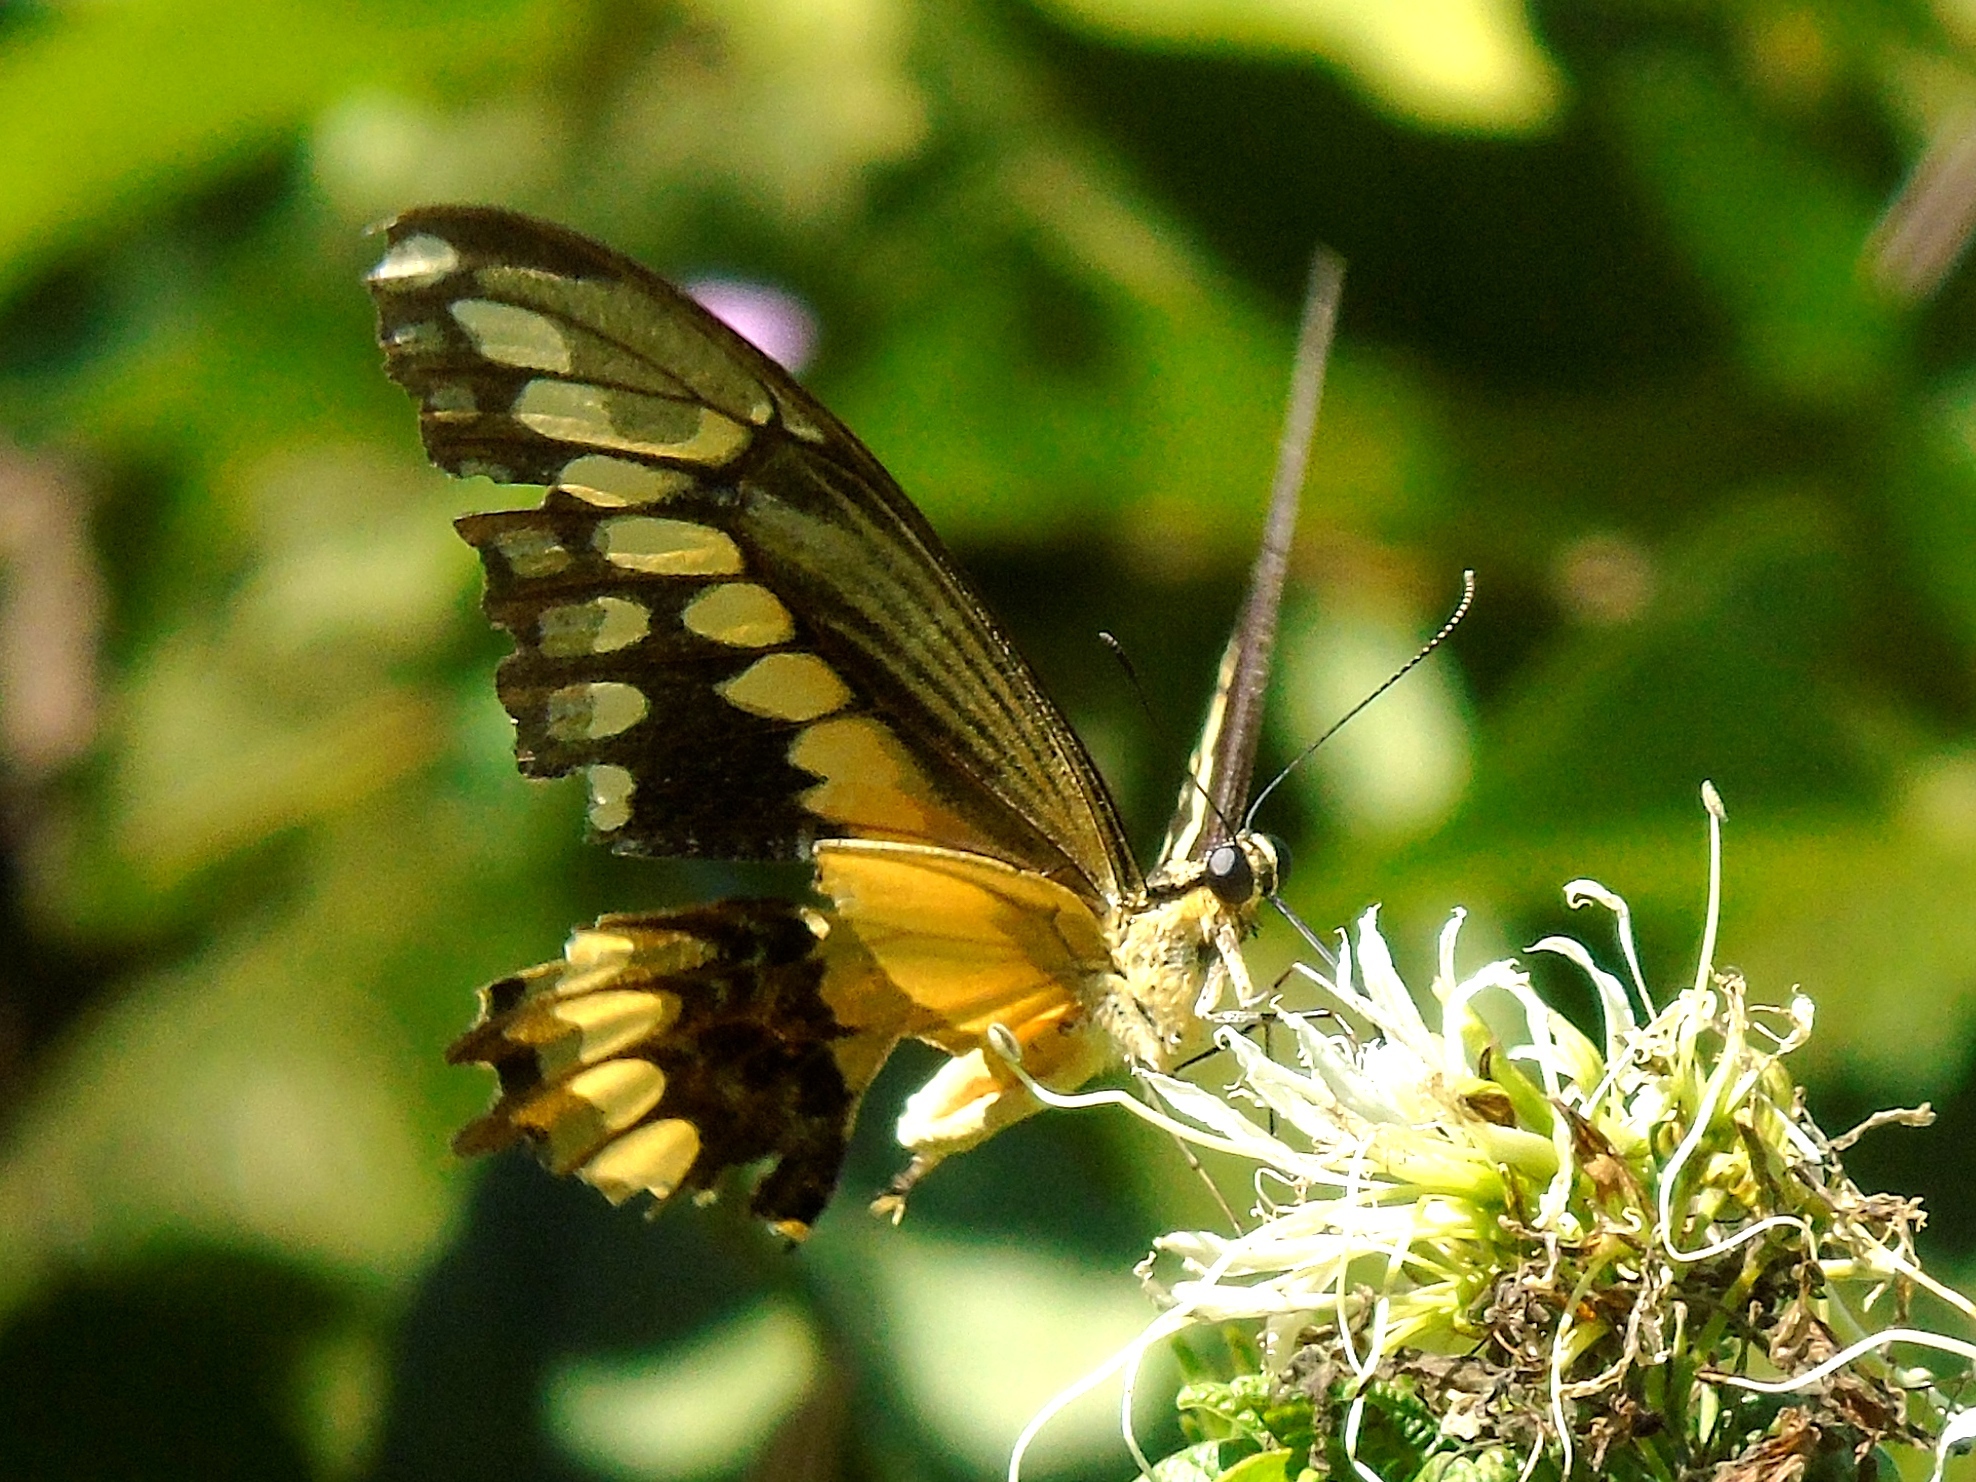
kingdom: Animalia
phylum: Arthropoda
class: Insecta
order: Lepidoptera
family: Papilionidae
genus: Papilio
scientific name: Papilio rumiko
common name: Western giant swallowtail
